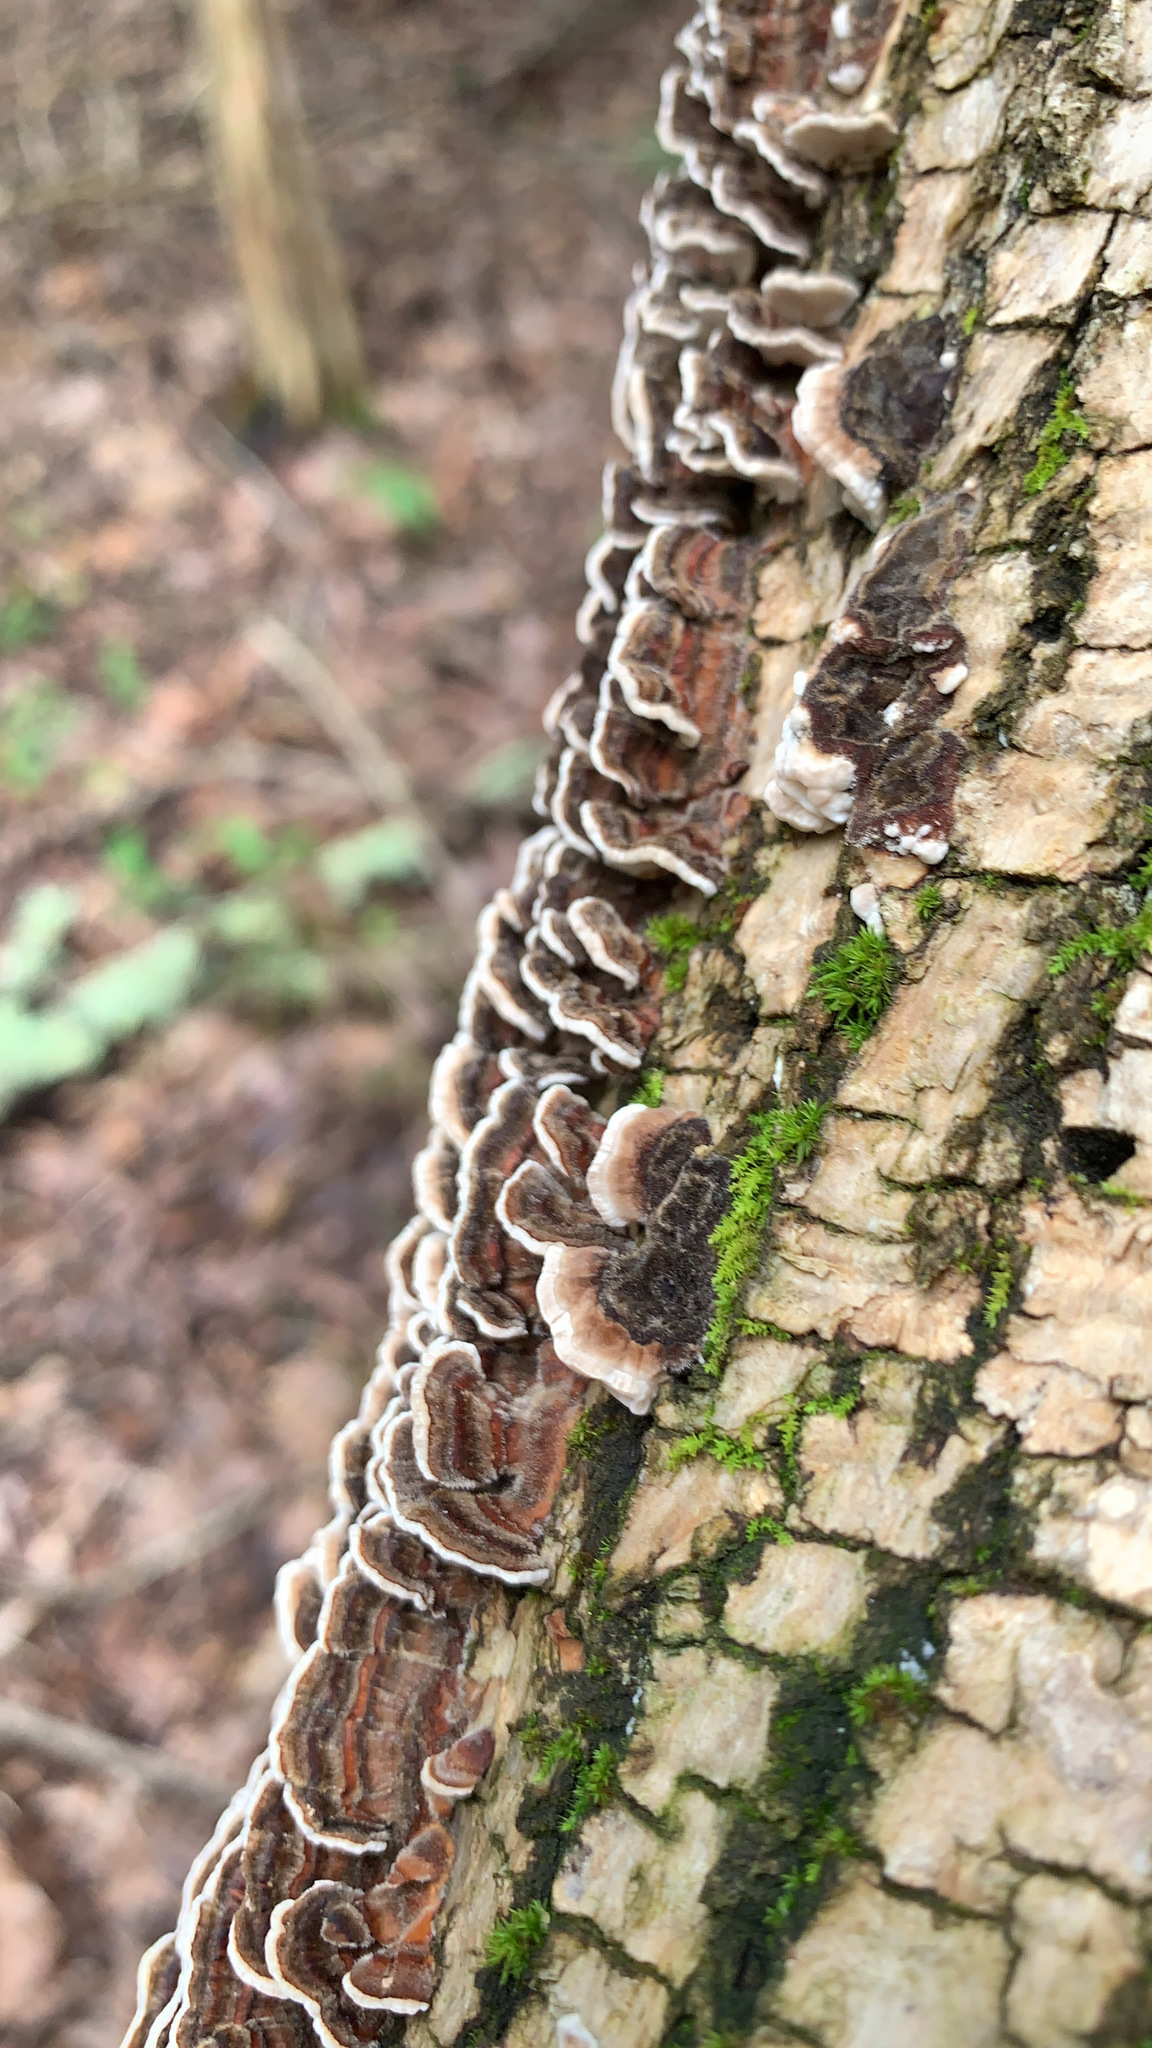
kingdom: Fungi
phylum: Basidiomycota
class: Agaricomycetes
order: Polyporales
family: Polyporaceae
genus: Trametes
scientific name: Trametes versicolor
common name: Turkeytail
